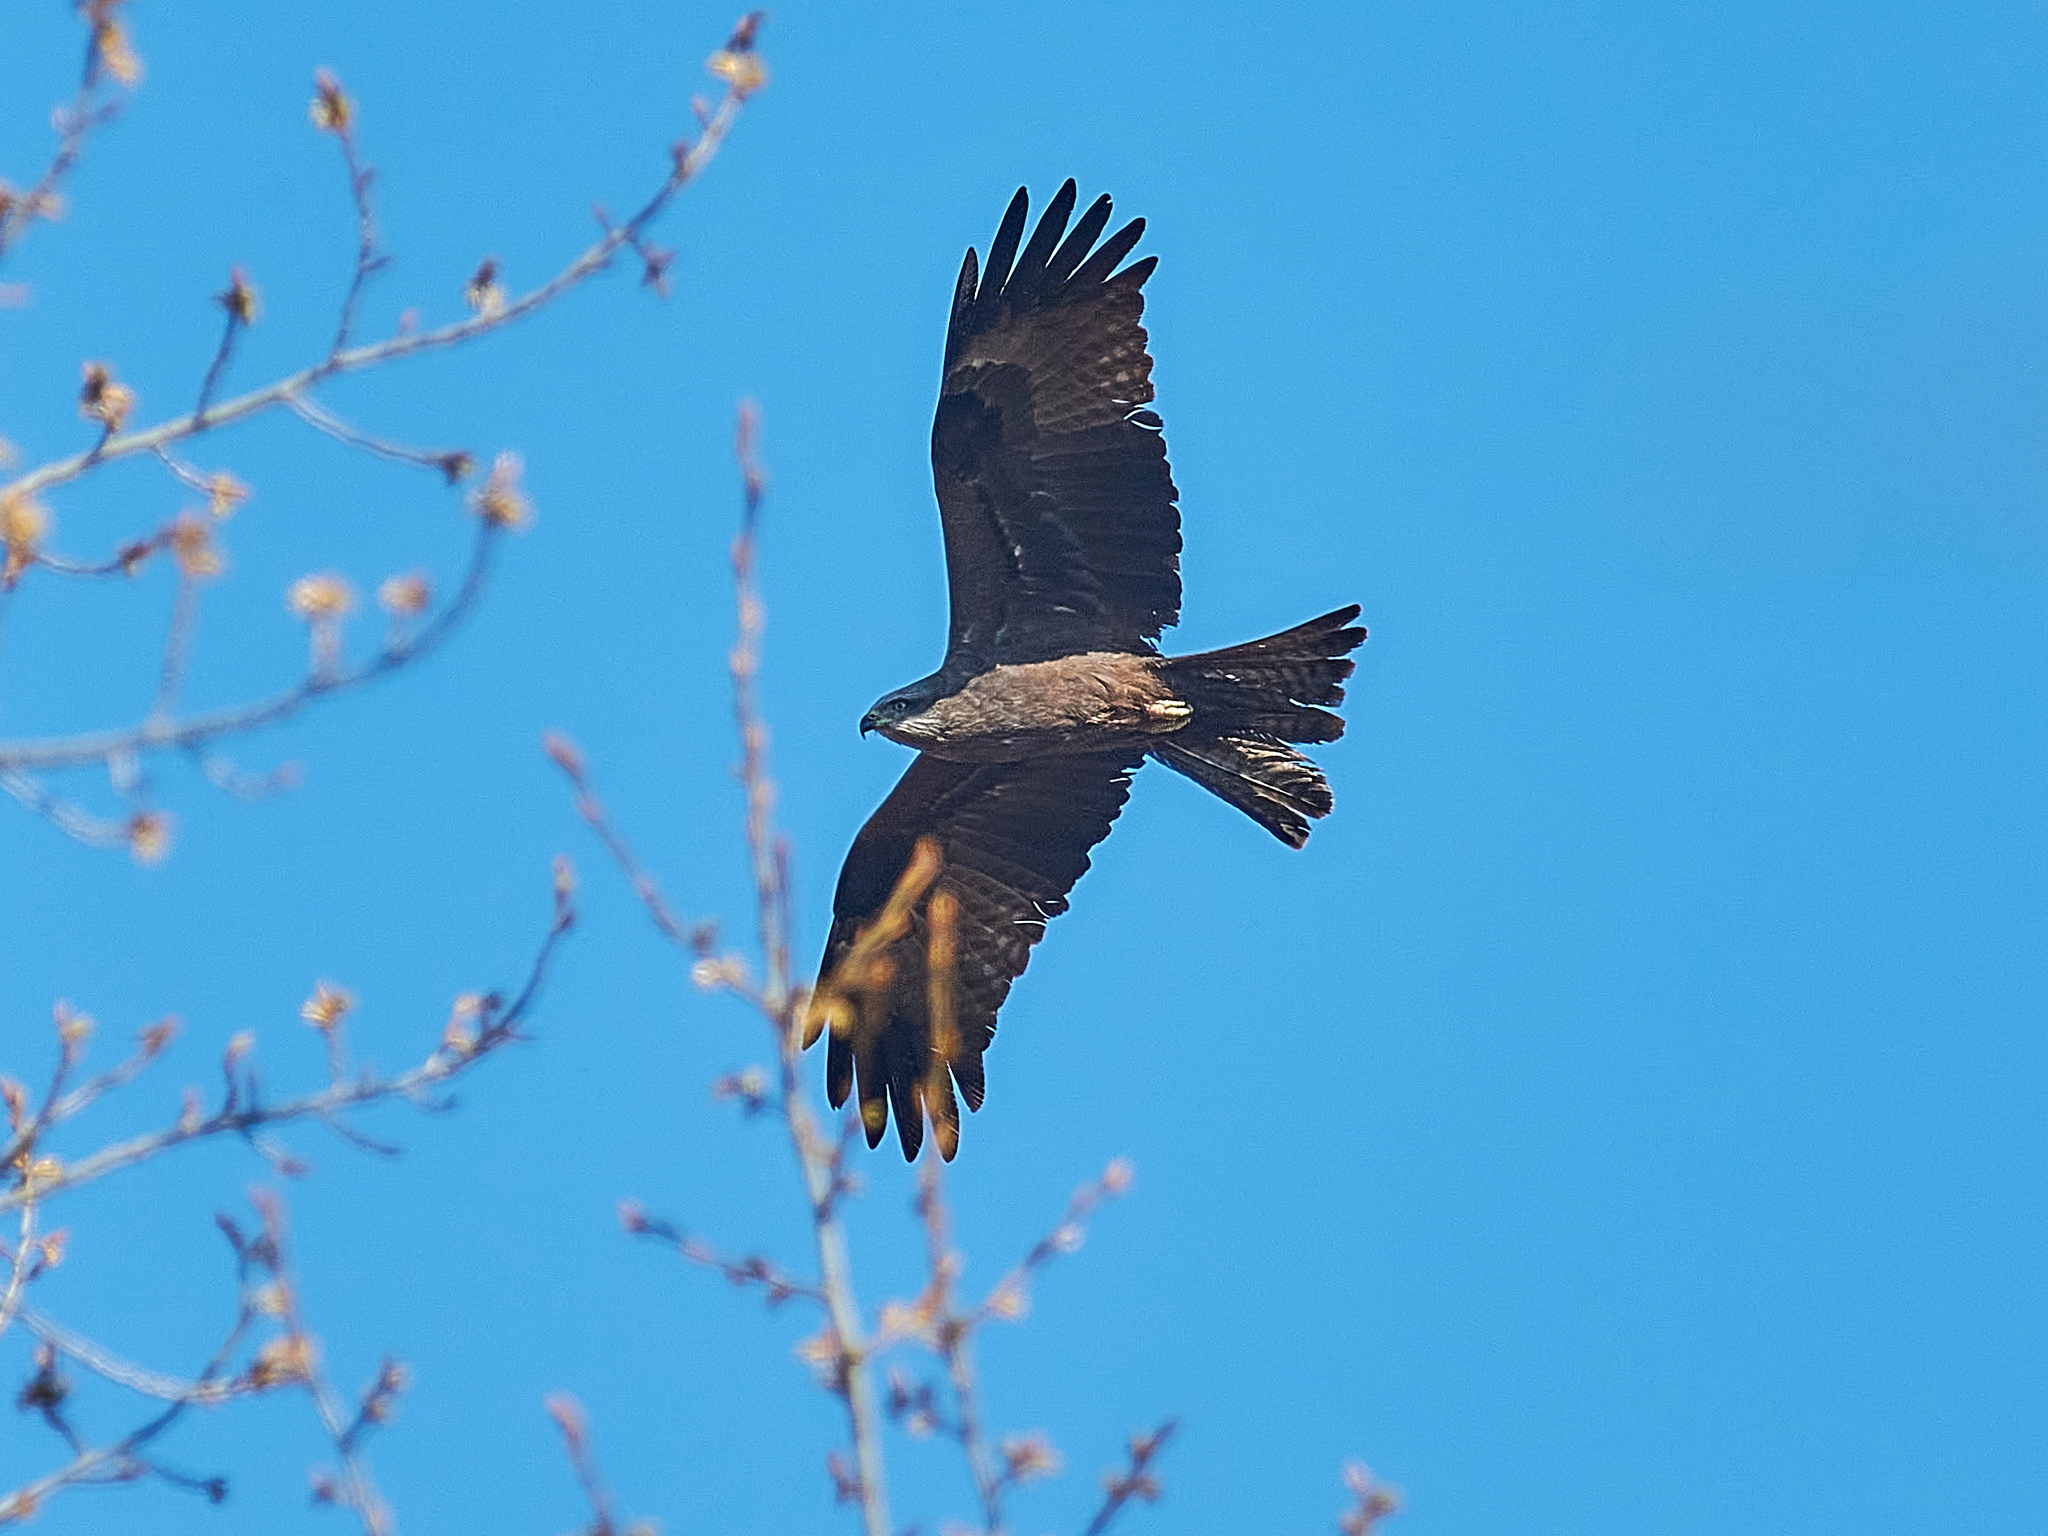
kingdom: Animalia
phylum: Chordata
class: Aves
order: Accipitriformes
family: Accipitridae
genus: Milvus
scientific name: Milvus migrans
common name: Black kite
